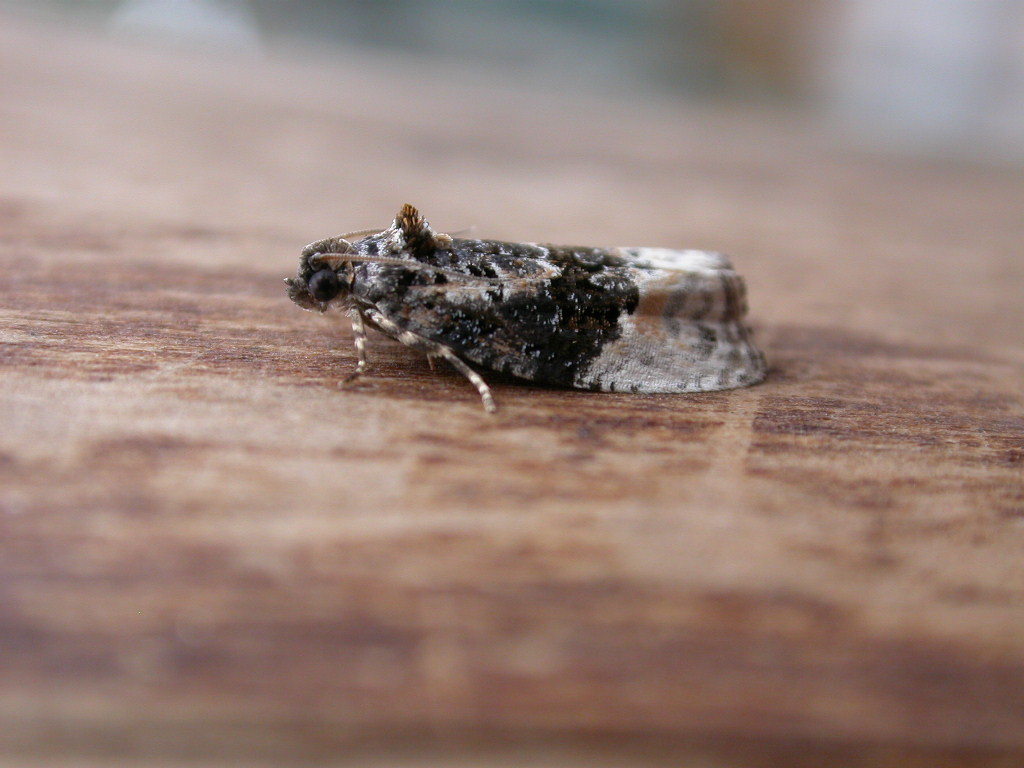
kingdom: Animalia
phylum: Arthropoda
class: Insecta
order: Lepidoptera
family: Tortricidae
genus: Apotomis
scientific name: Apotomis betuletana
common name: Birch marble
